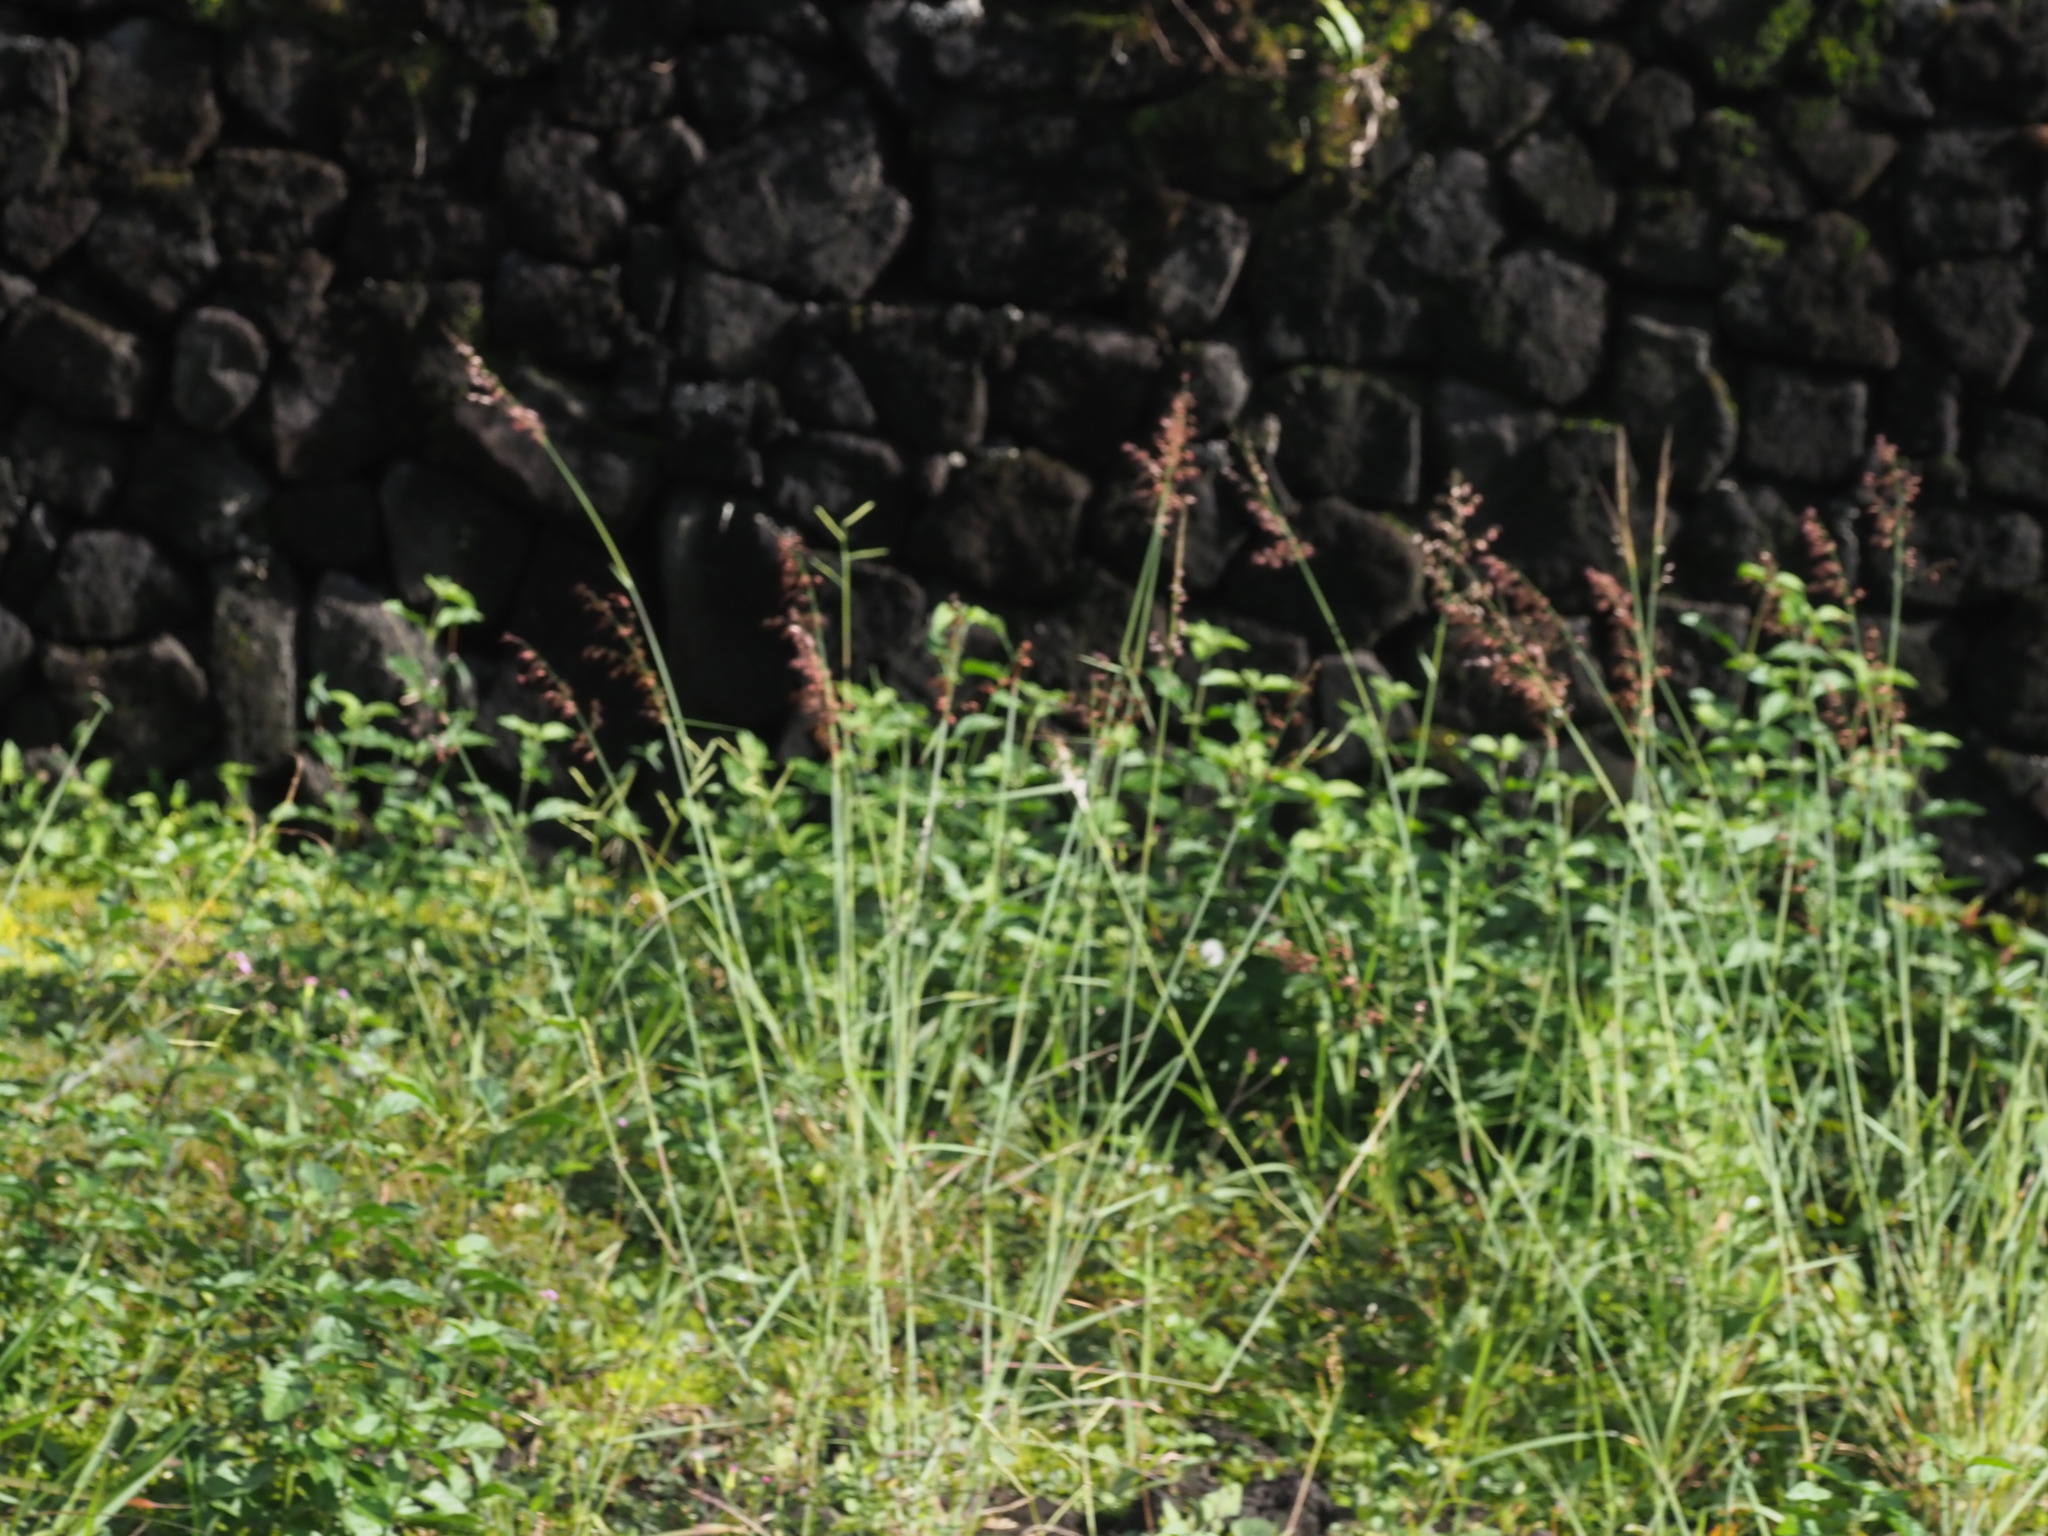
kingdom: Plantae
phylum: Tracheophyta
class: Liliopsida
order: Poales
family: Poaceae
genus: Melinis
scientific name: Melinis repens
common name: Rose natal grass
